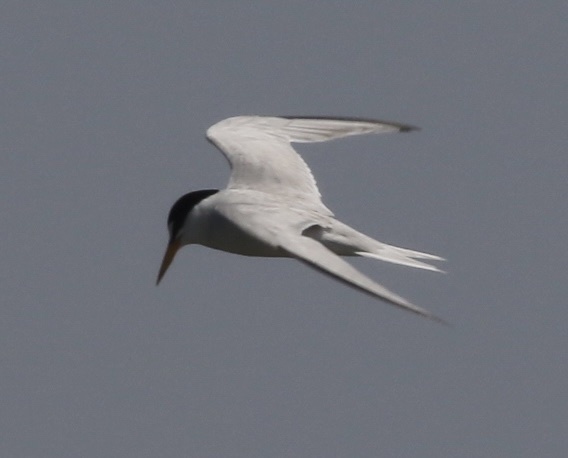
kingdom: Animalia
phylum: Chordata
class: Aves
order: Charadriiformes
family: Laridae
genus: Sternula
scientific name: Sternula antillarum
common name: Least tern
